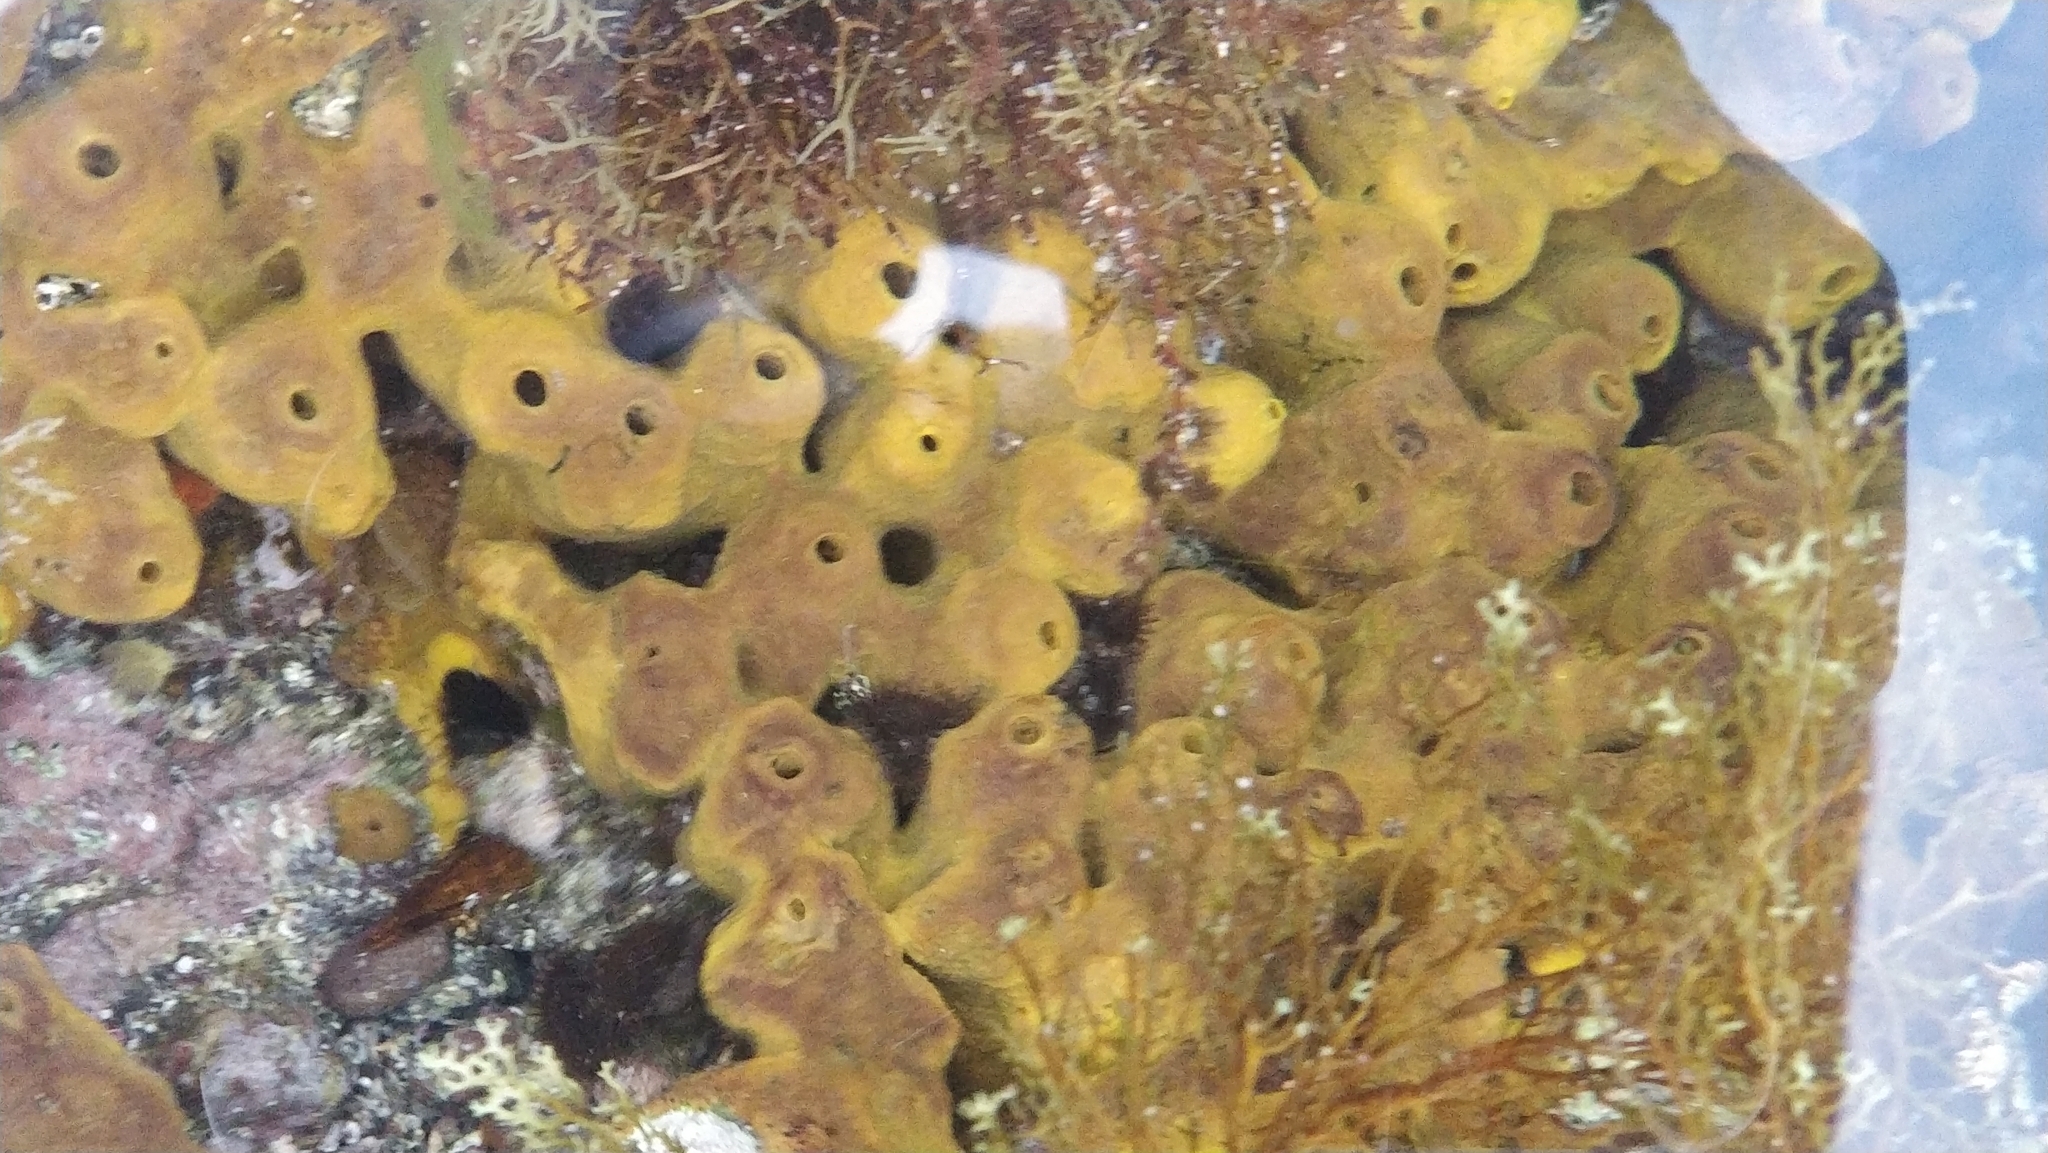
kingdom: Animalia
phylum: Porifera
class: Demospongiae
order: Verongiida
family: Aplysinidae
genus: Aplysina
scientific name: Aplysina aerophoba
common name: Aureate sponge
